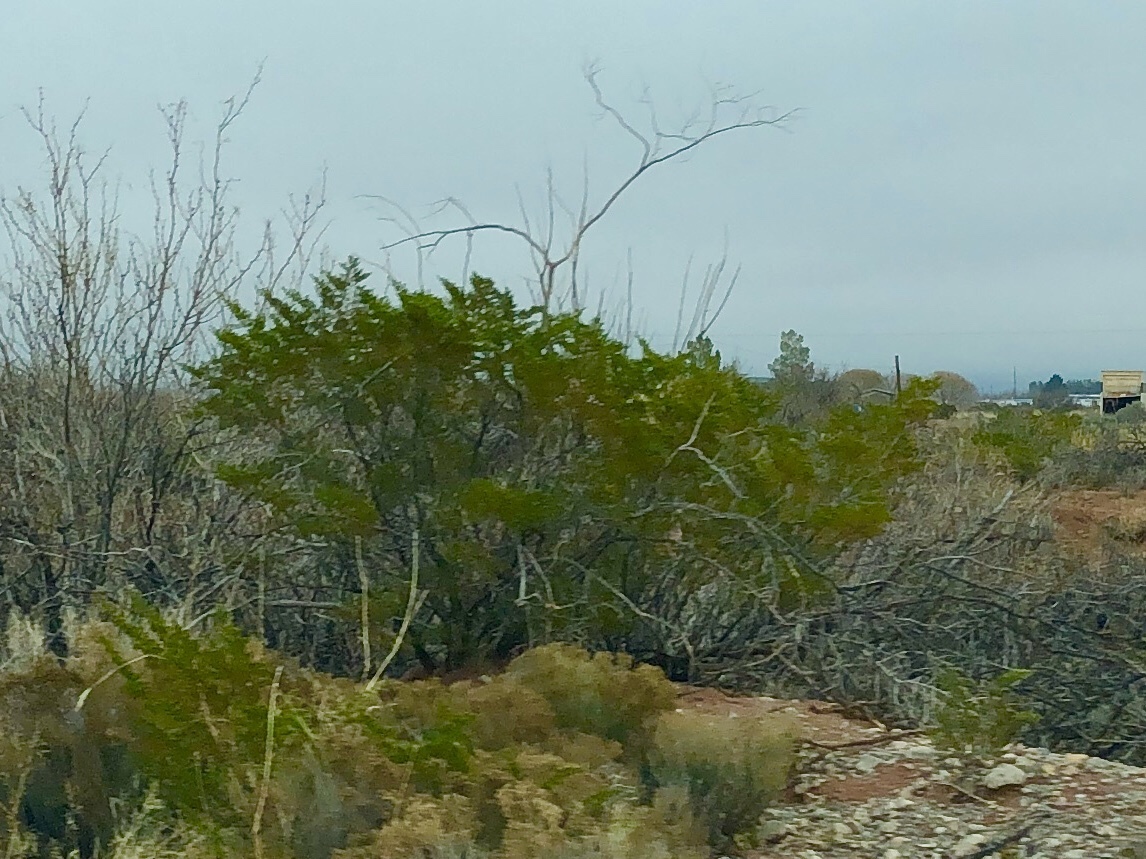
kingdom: Plantae
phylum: Tracheophyta
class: Magnoliopsida
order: Zygophyllales
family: Zygophyllaceae
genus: Larrea
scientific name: Larrea tridentata
